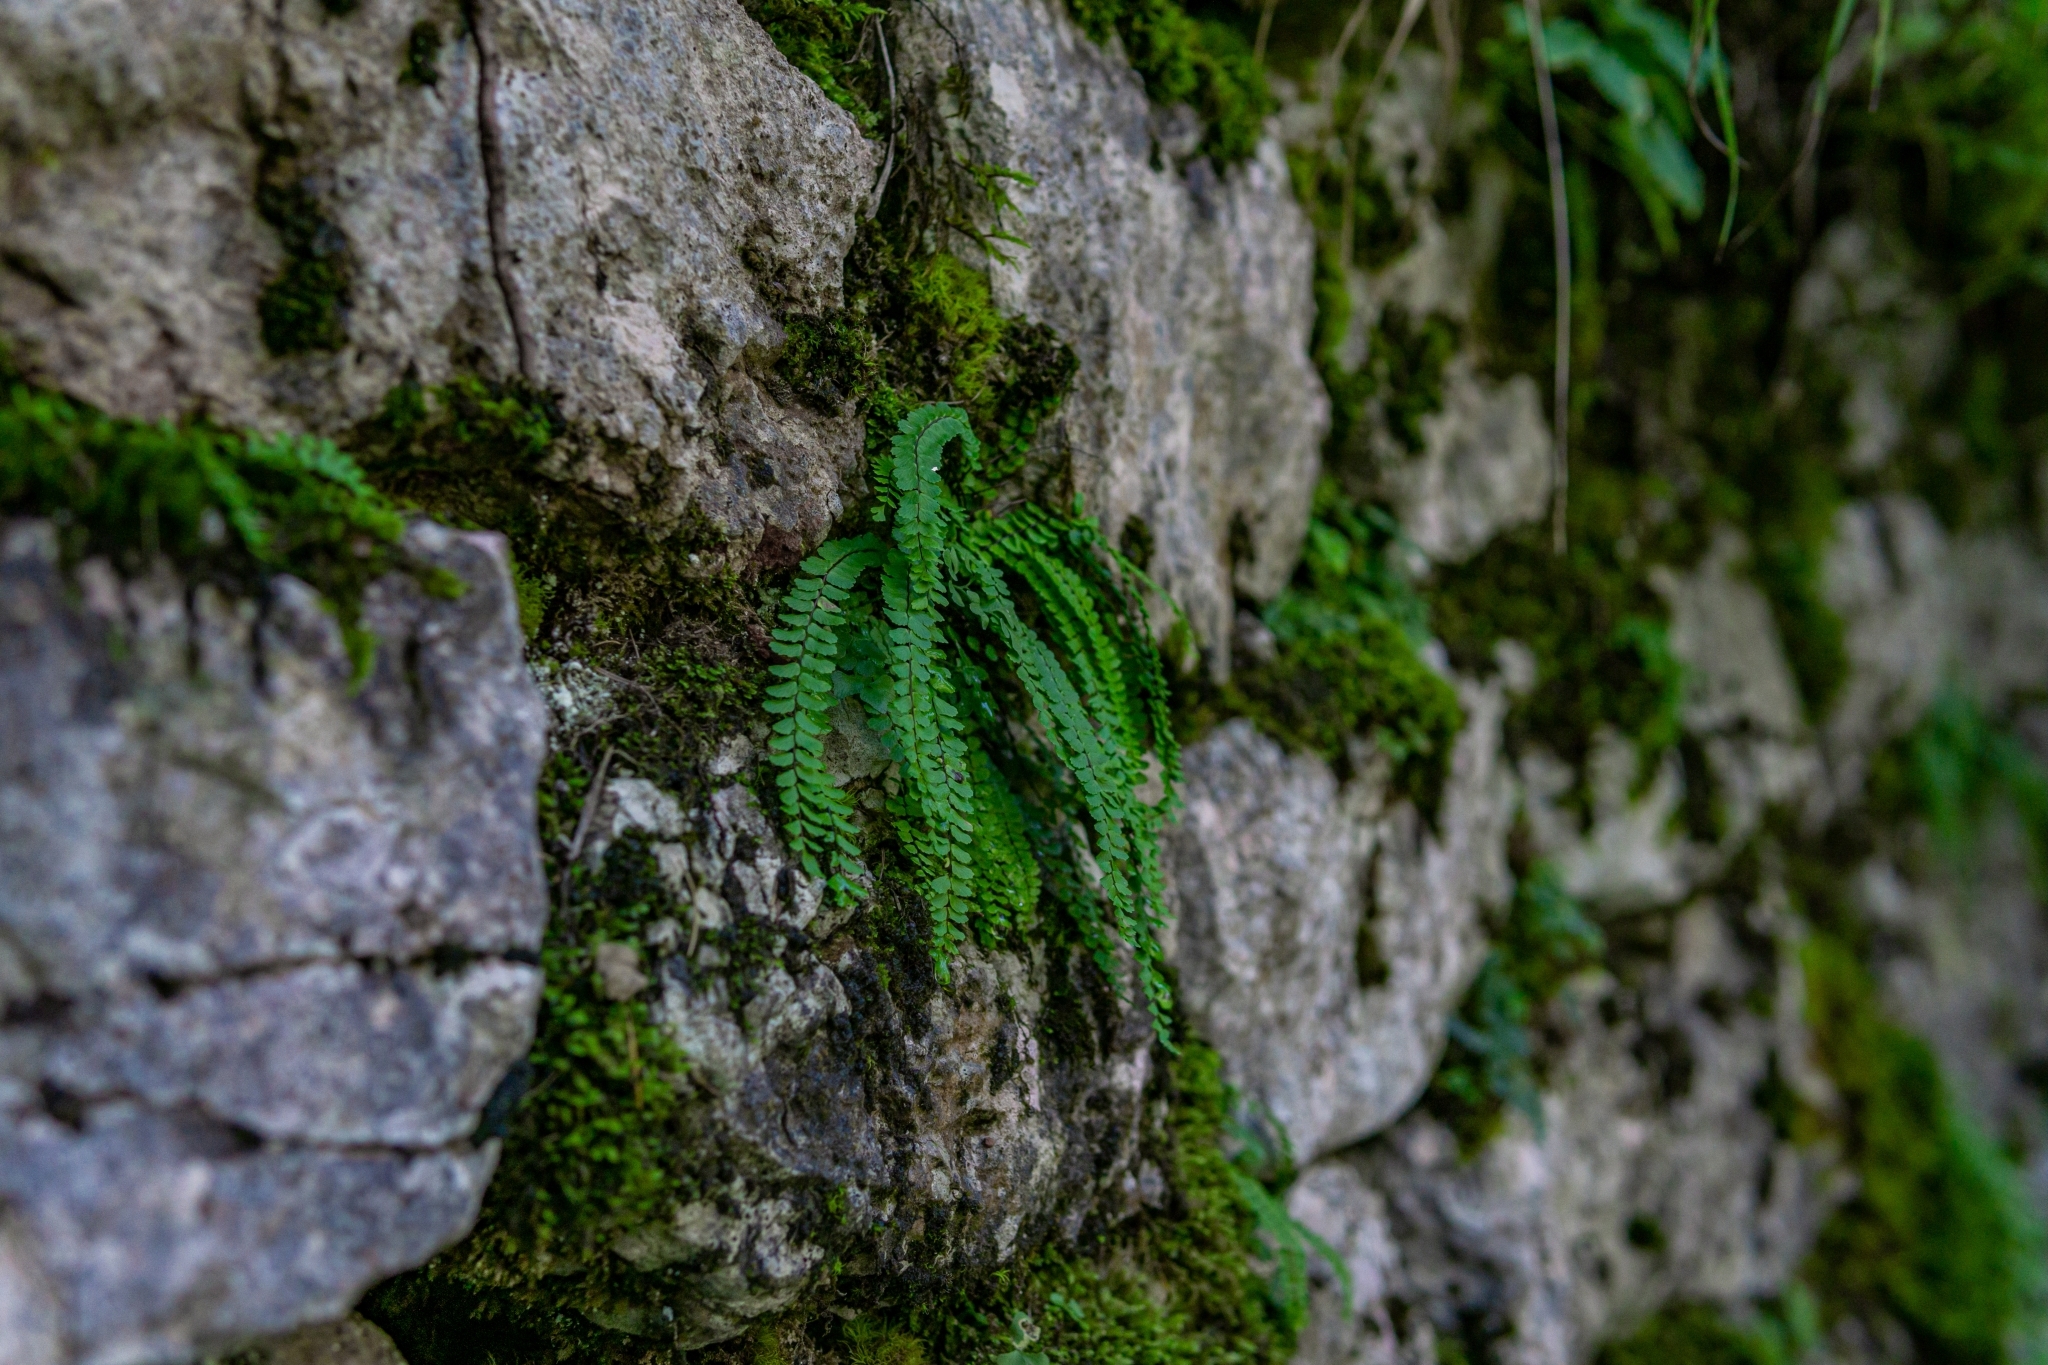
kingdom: Plantae
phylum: Tracheophyta
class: Polypodiopsida
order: Polypodiales
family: Aspleniaceae
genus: Asplenium
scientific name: Asplenium trichomanes
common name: Maidenhair spleenwort
